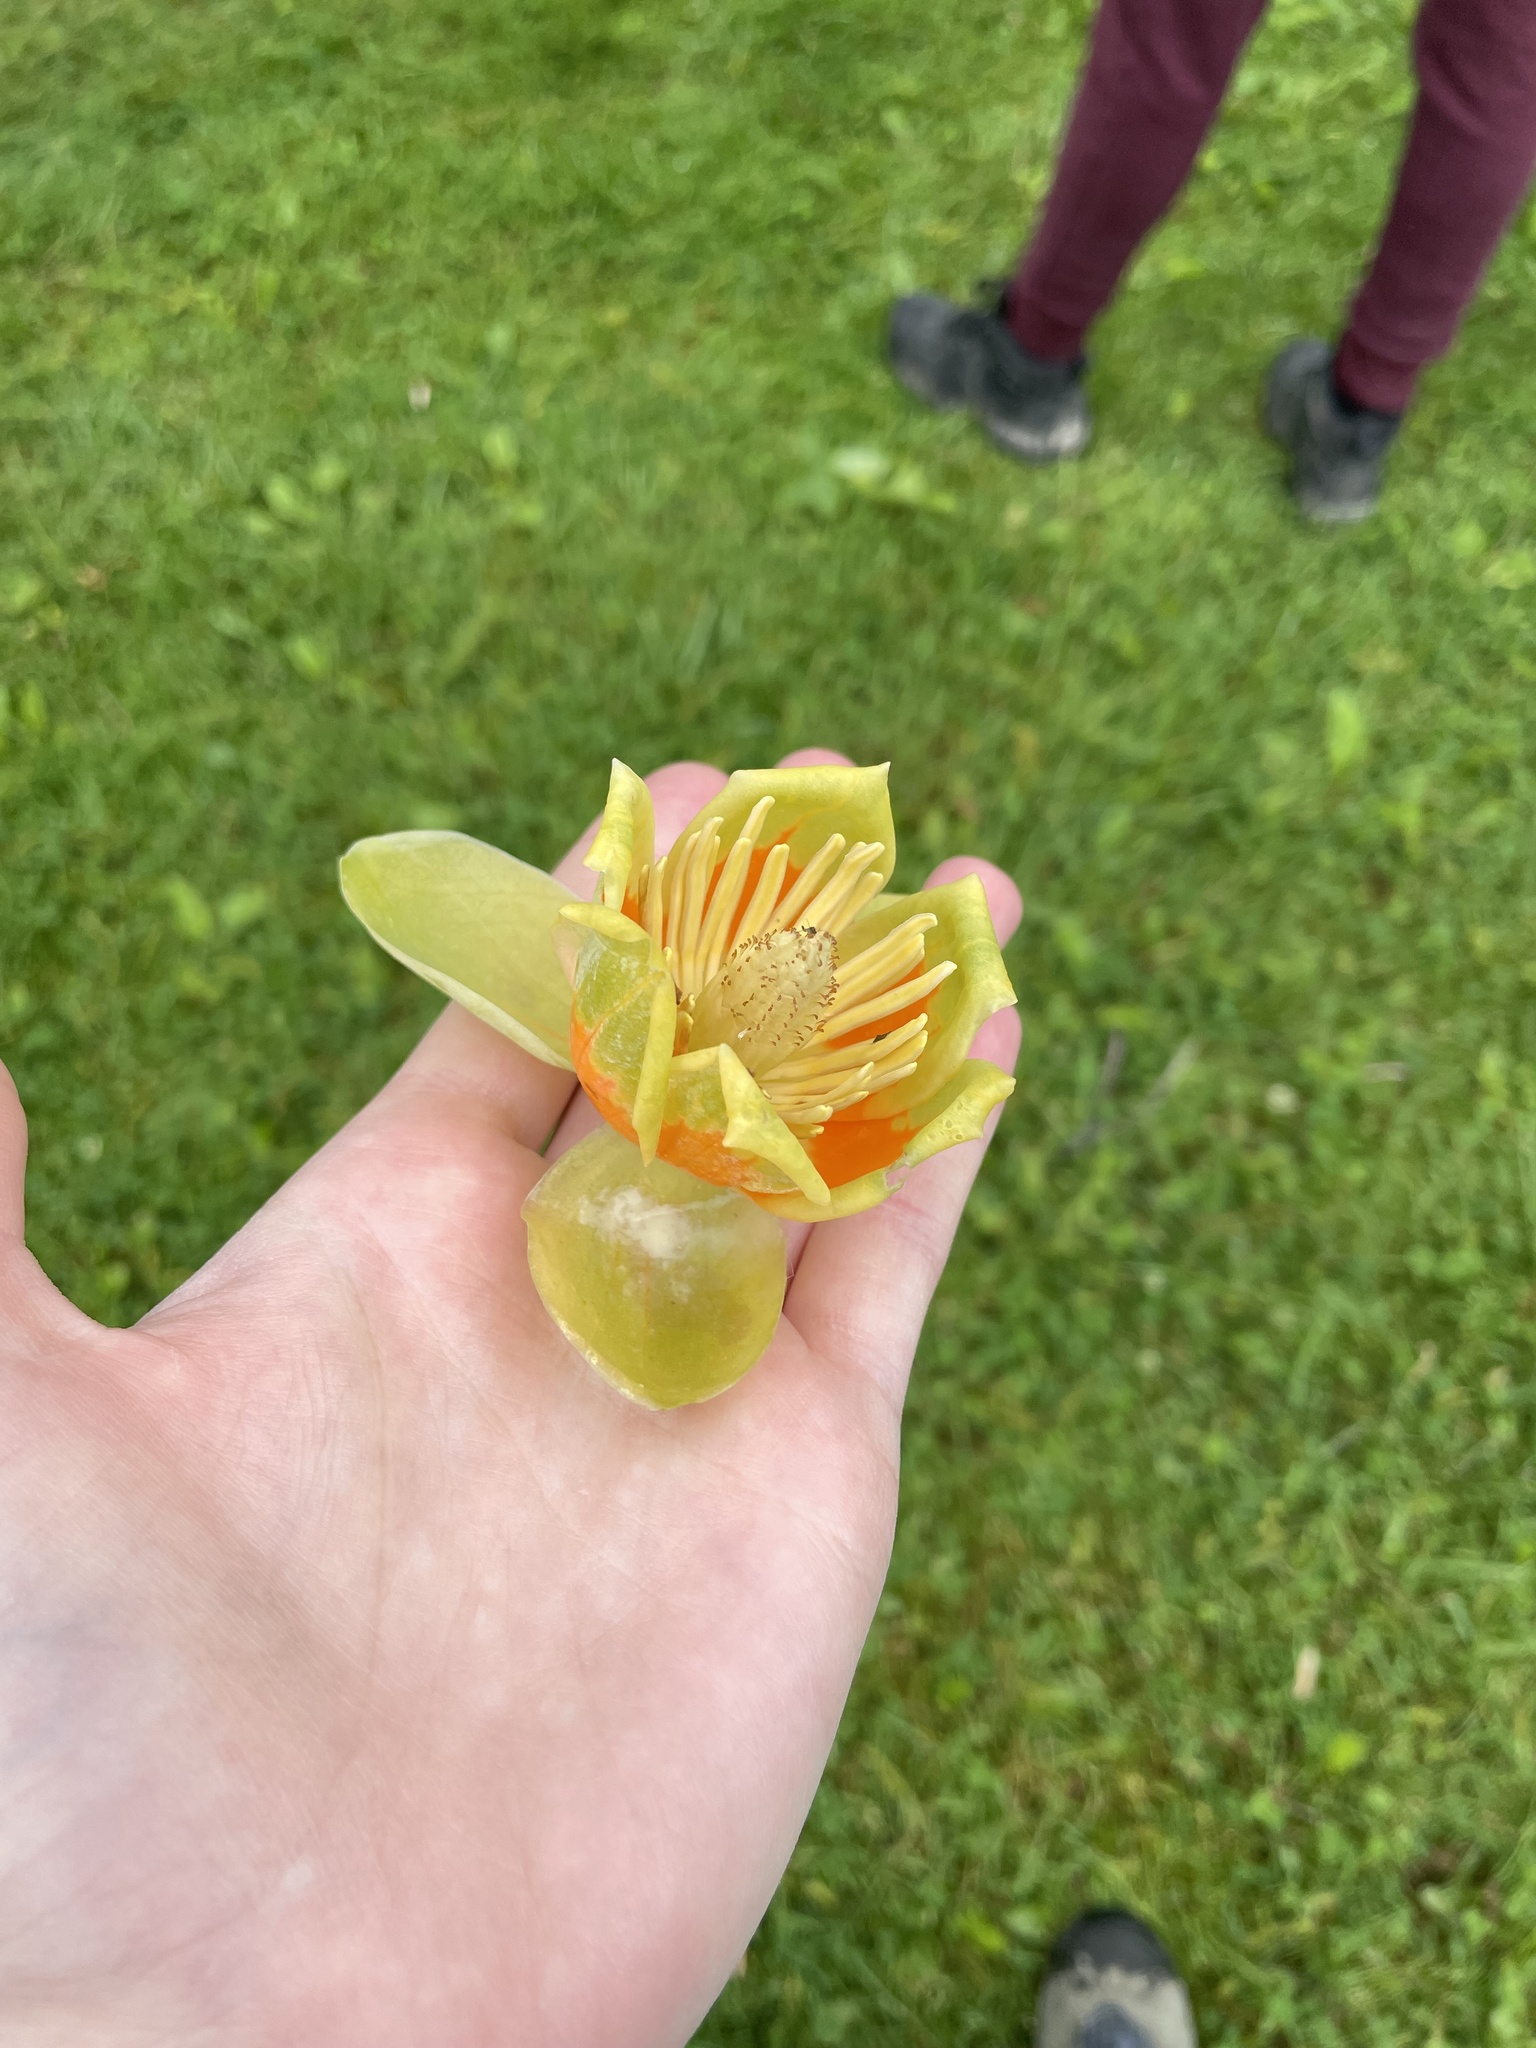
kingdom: Plantae
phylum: Tracheophyta
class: Magnoliopsida
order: Magnoliales
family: Magnoliaceae
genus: Liriodendron
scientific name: Liriodendron tulipifera
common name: Tulip tree
